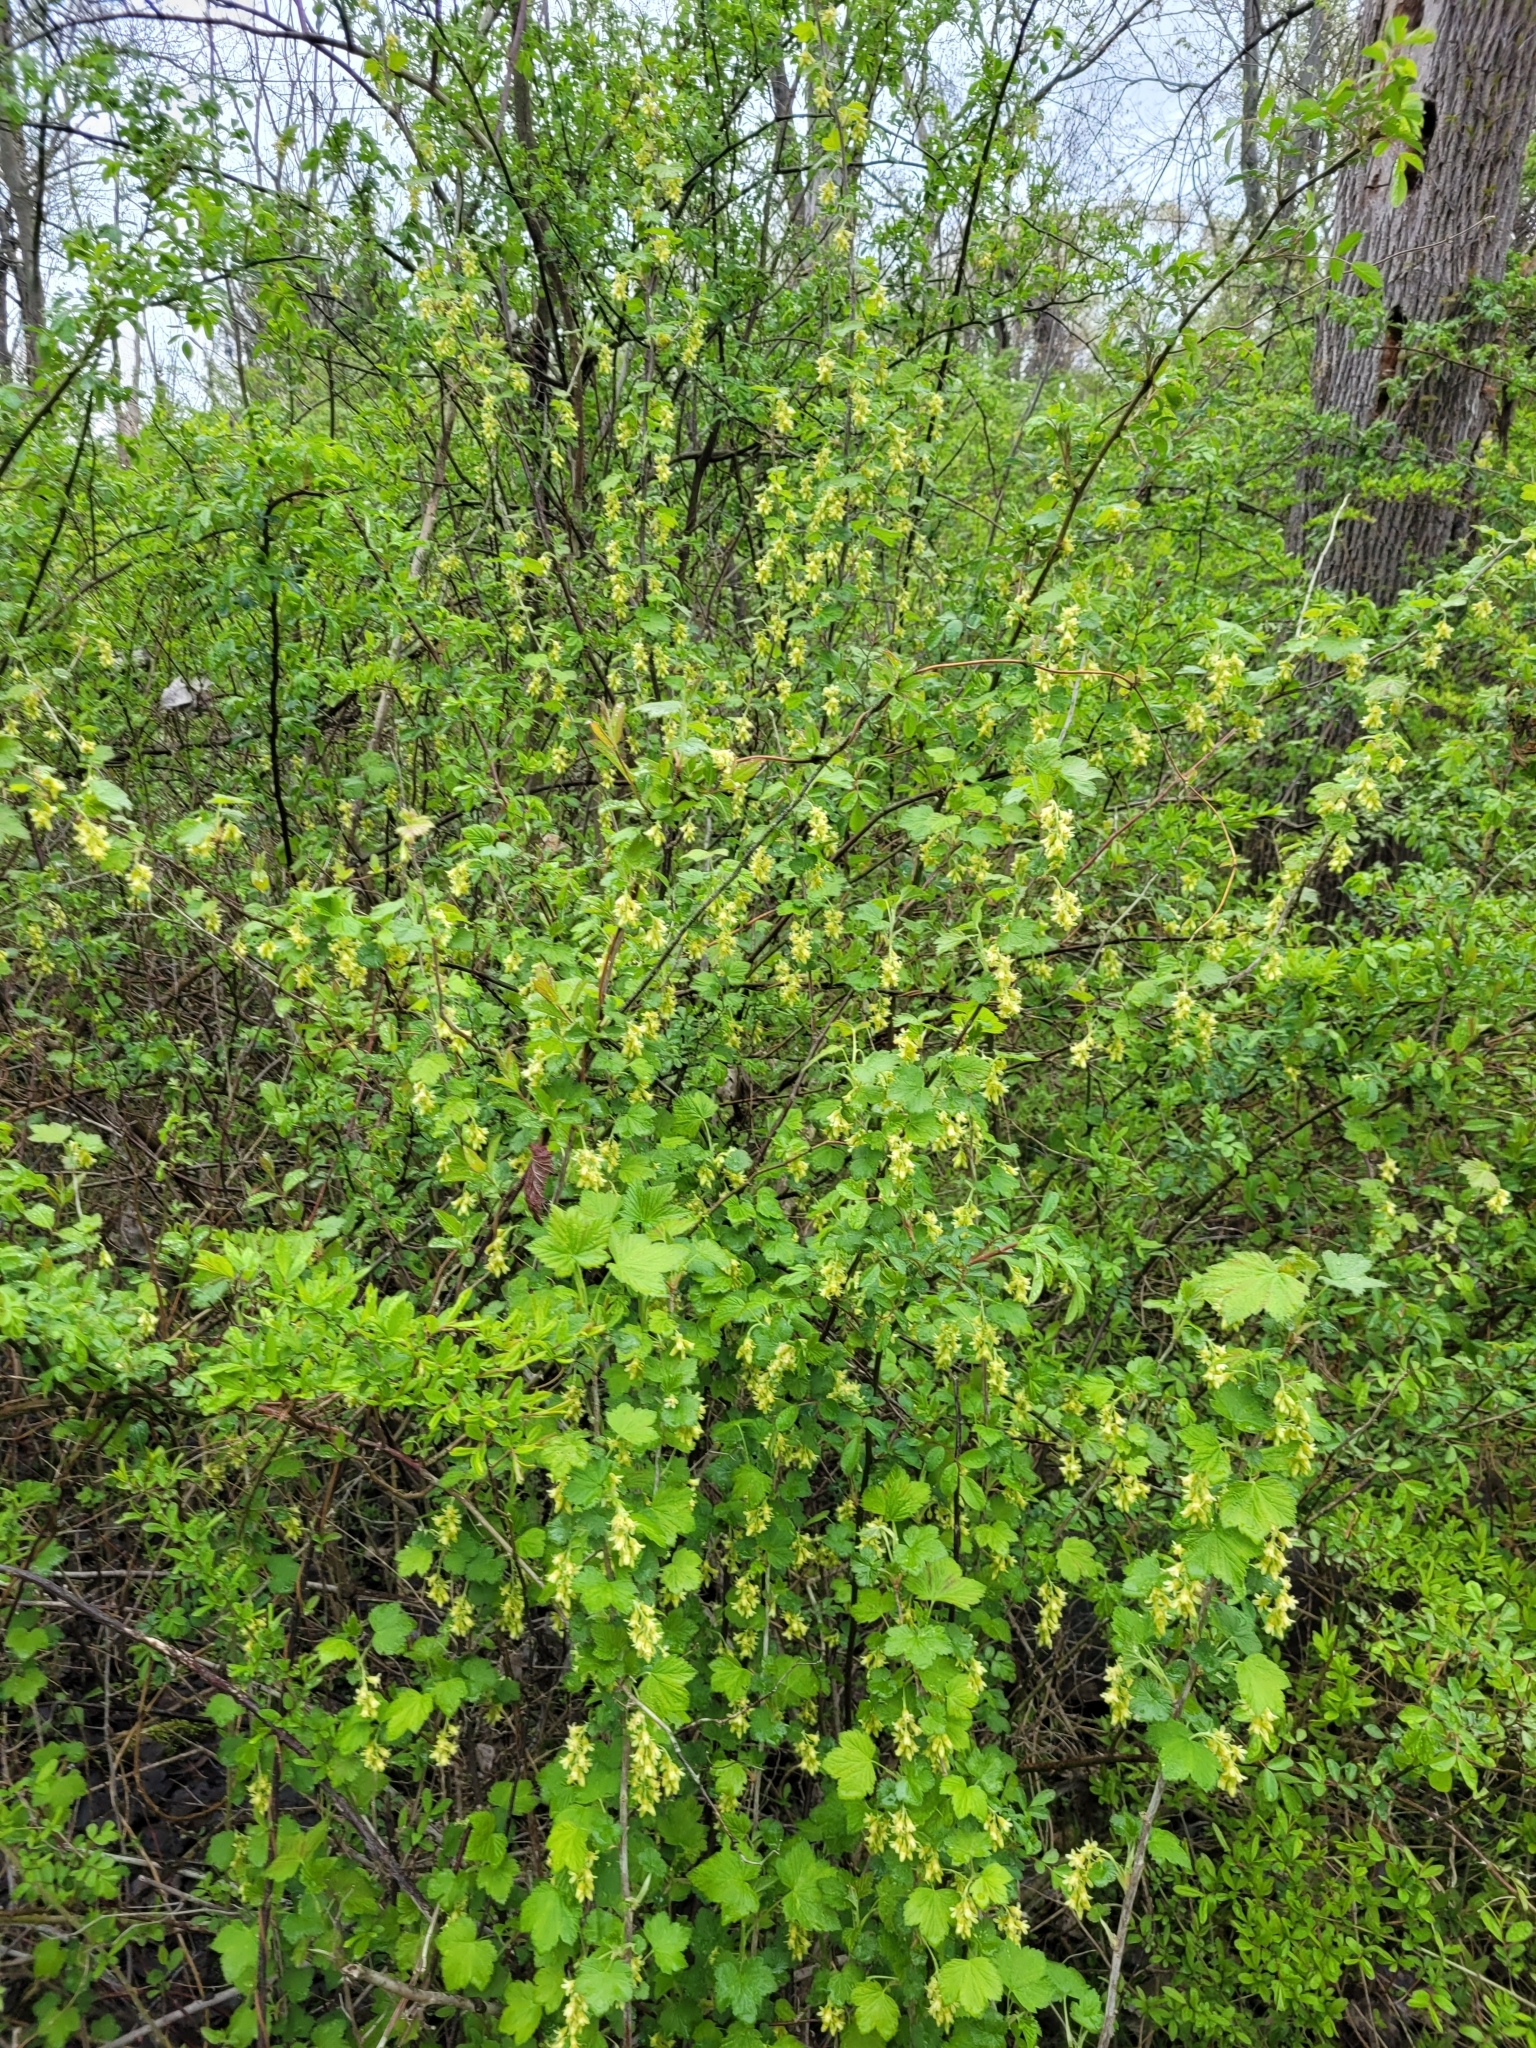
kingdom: Plantae
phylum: Tracheophyta
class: Magnoliopsida
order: Saxifragales
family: Grossulariaceae
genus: Ribes
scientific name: Ribes americanum
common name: American black currant
